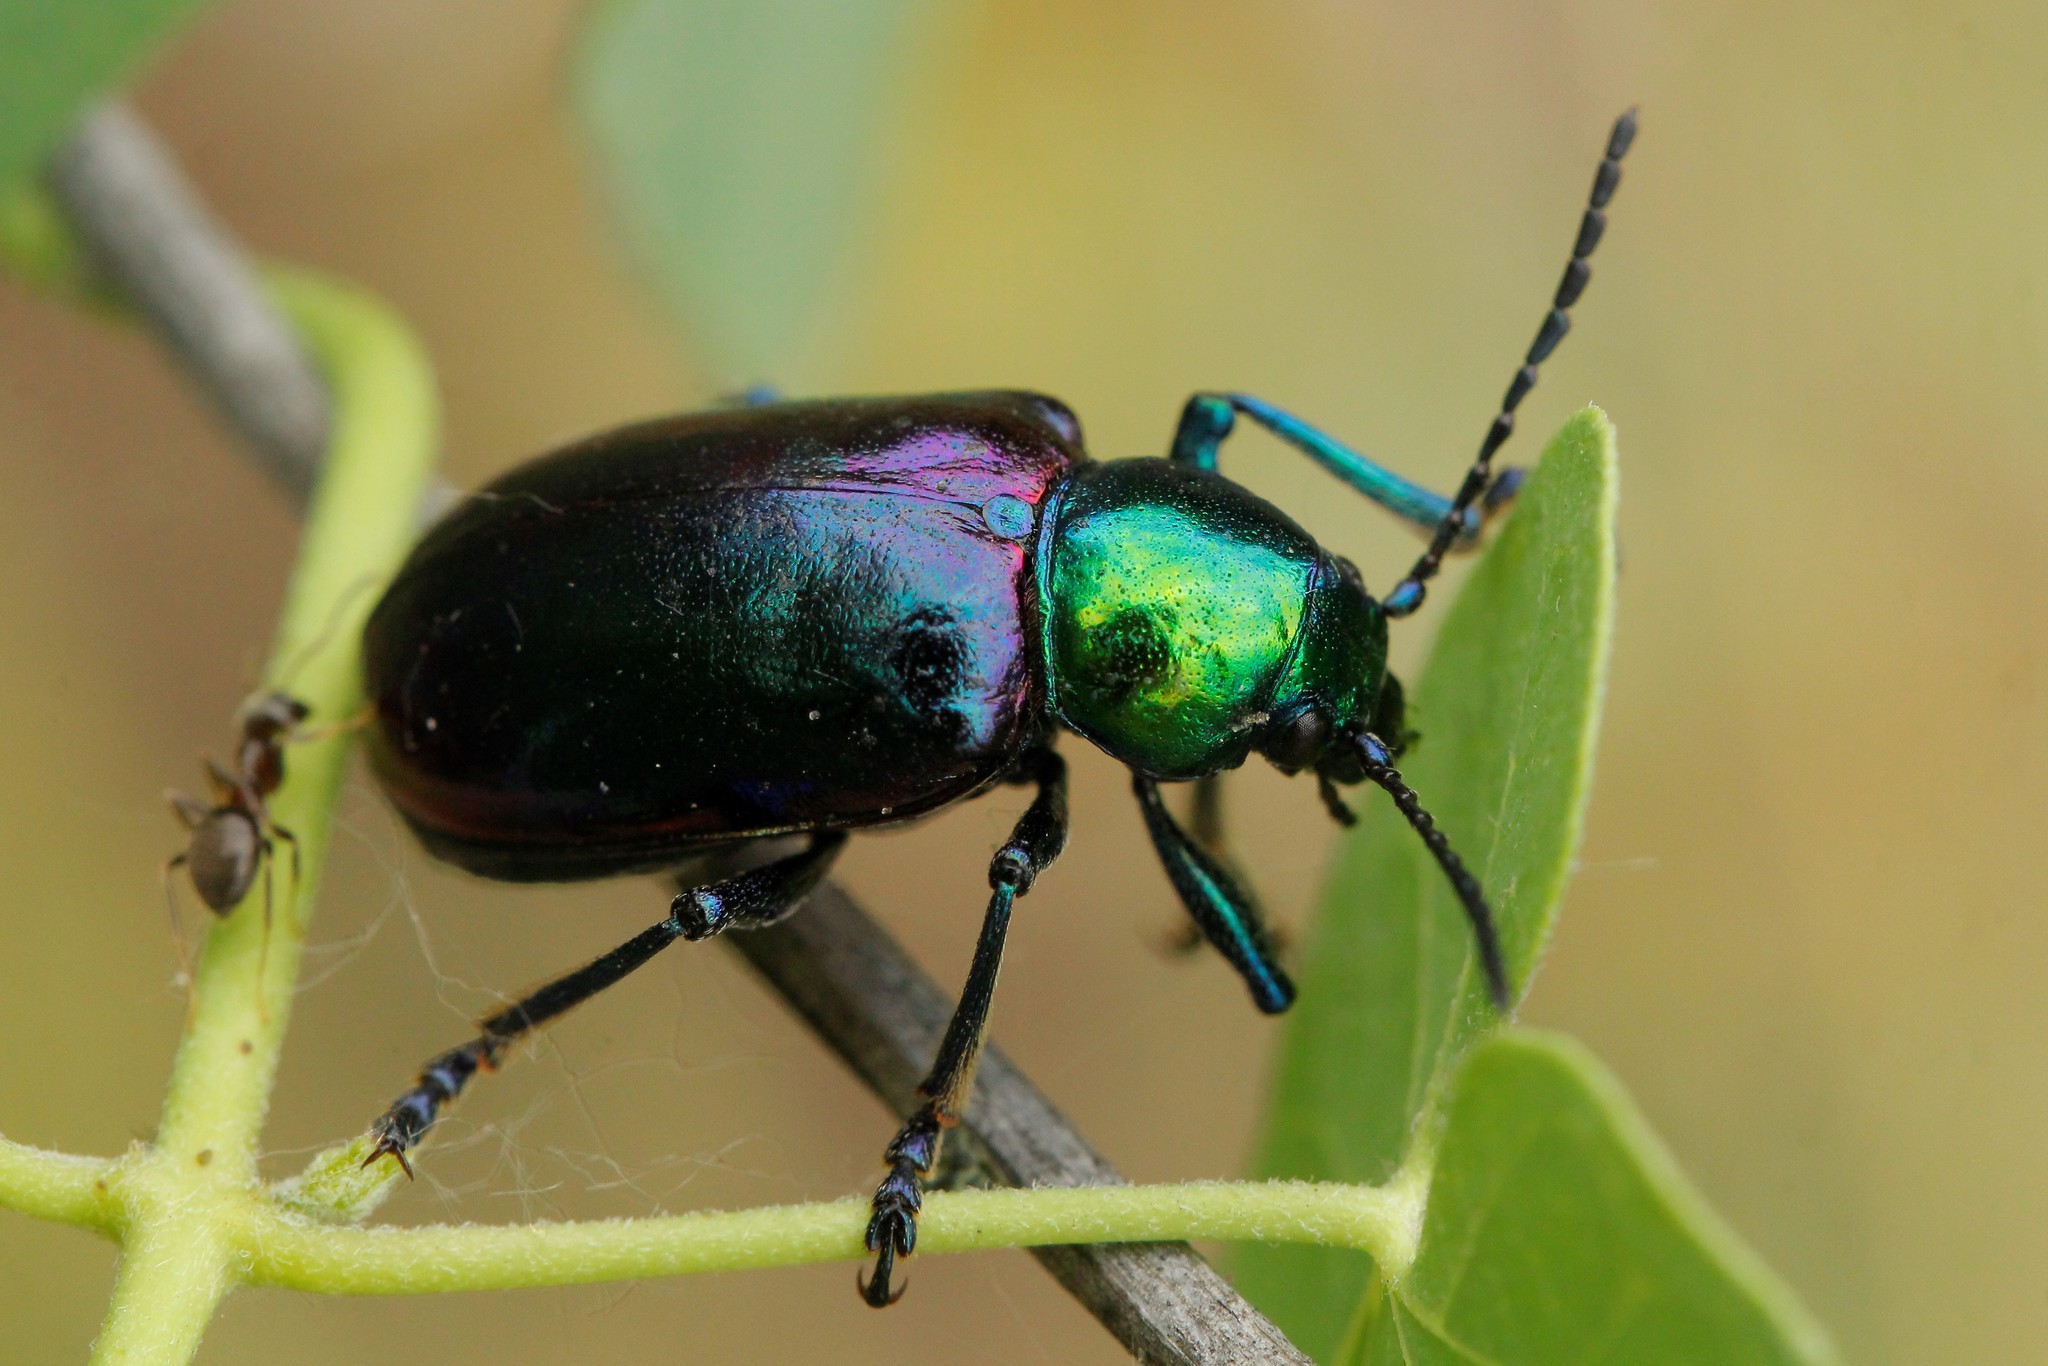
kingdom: Animalia
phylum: Arthropoda
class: Insecta
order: Coleoptera
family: Chrysomelidae
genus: Chrysochares
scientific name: Chrysochares
